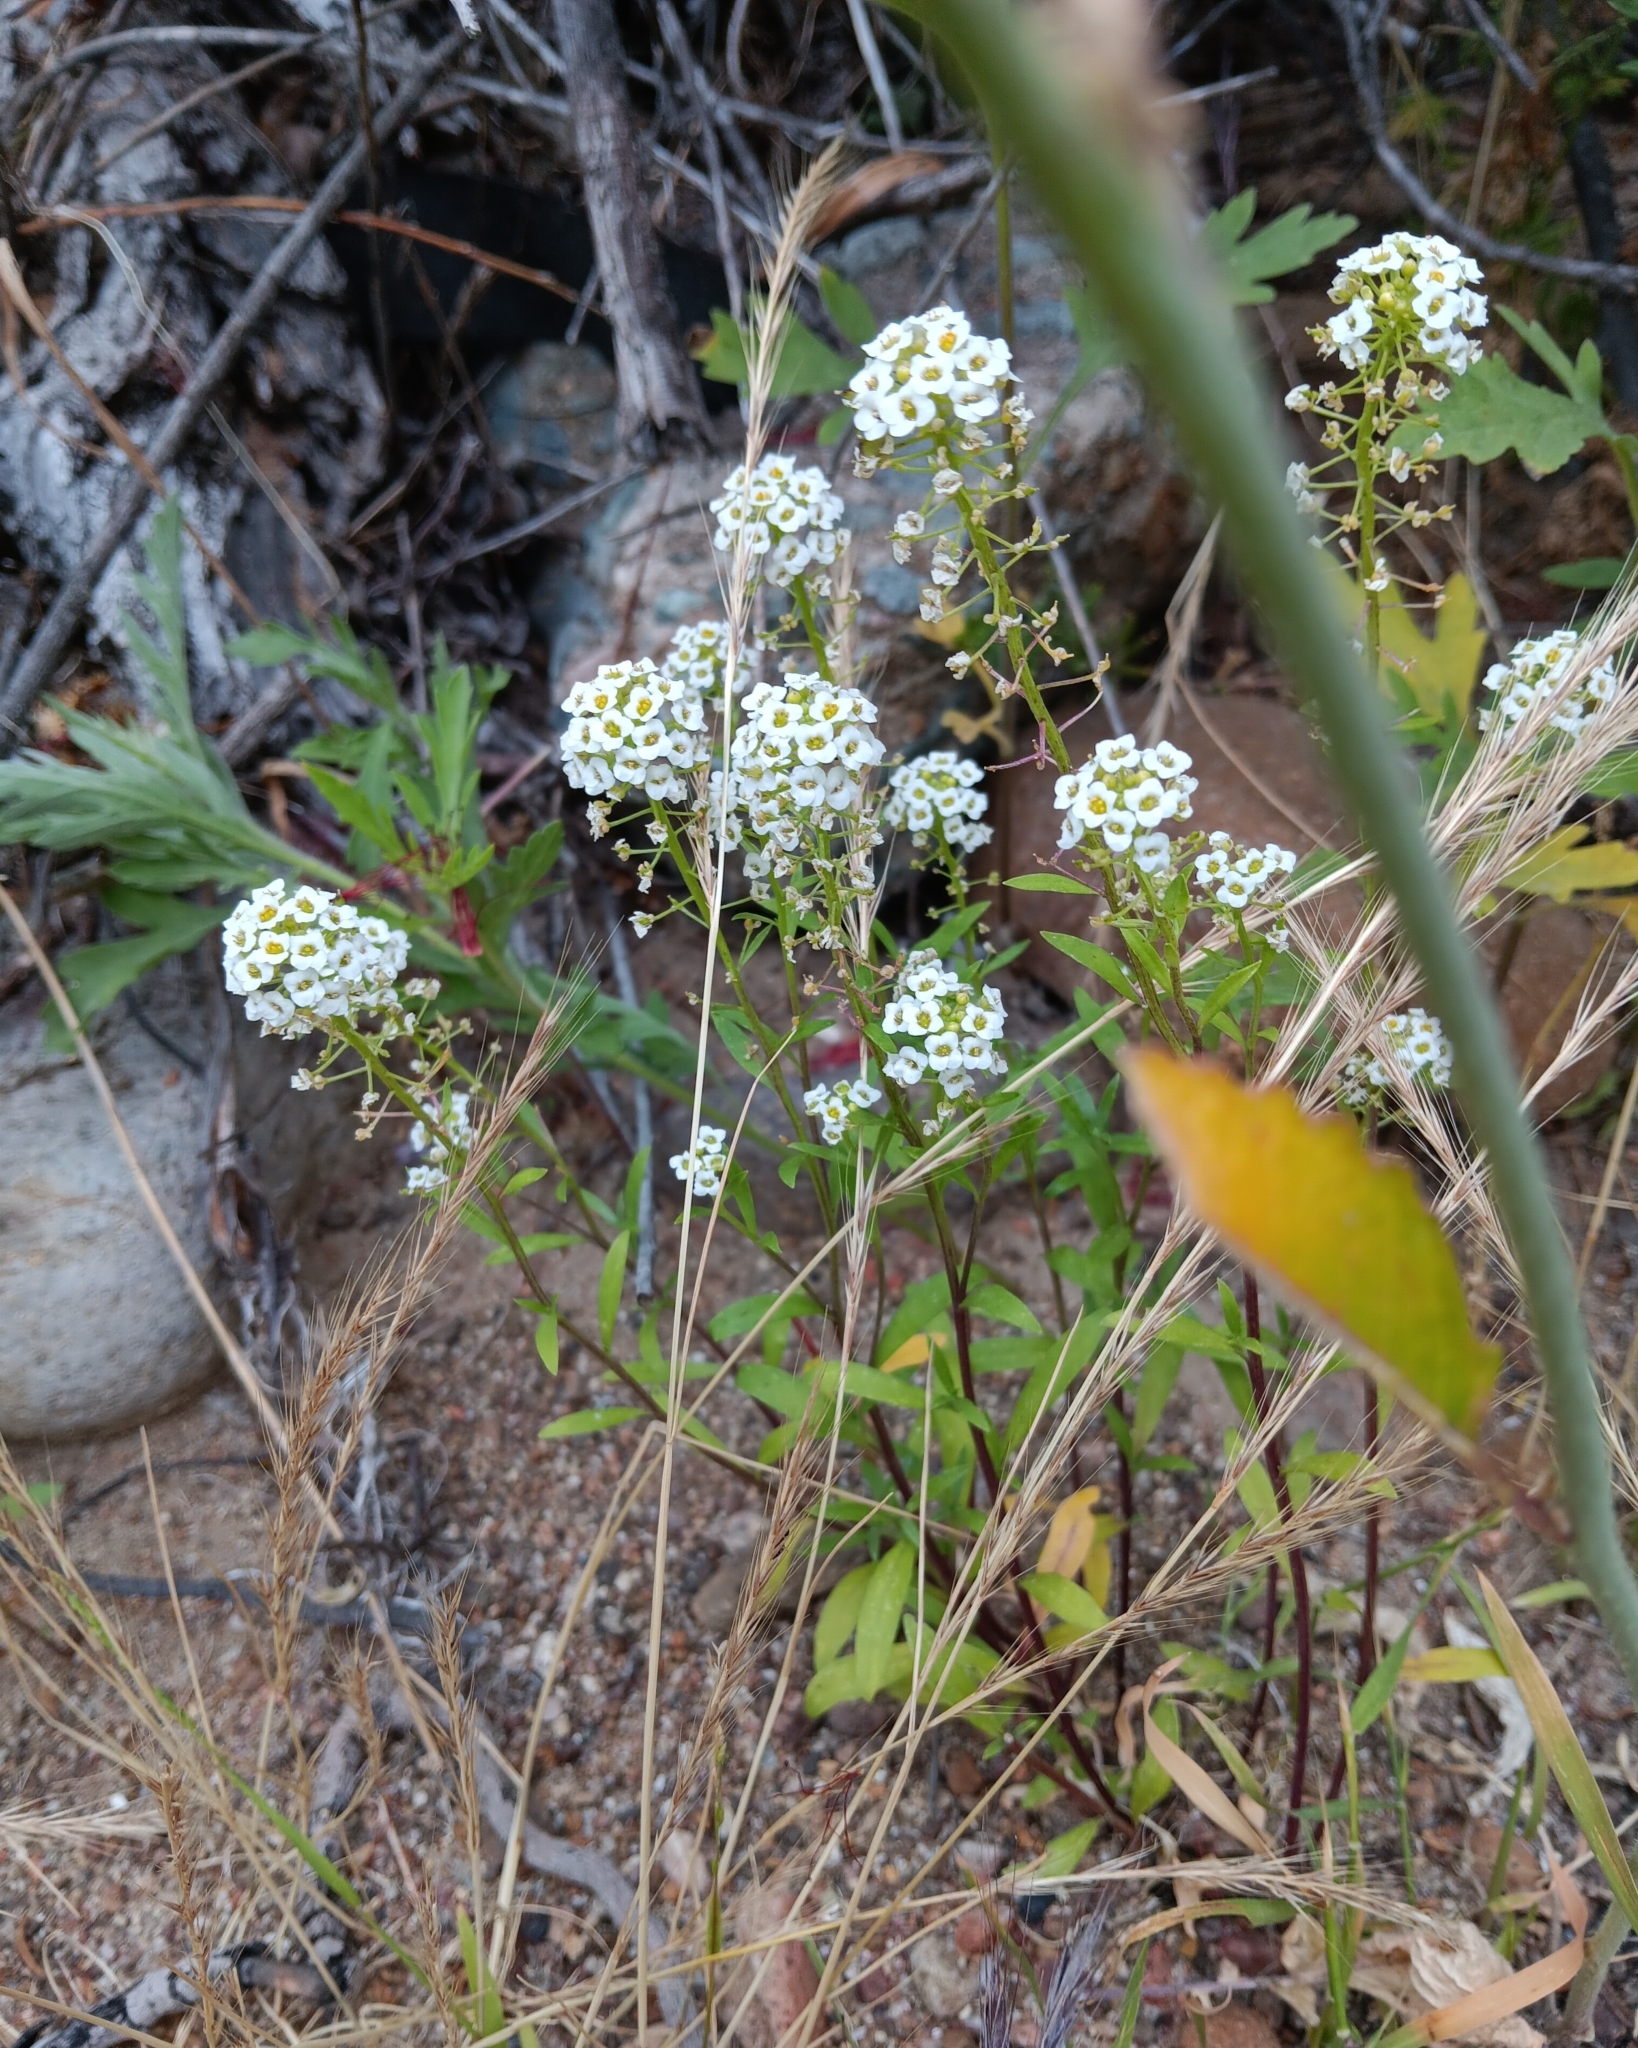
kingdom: Plantae
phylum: Tracheophyta
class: Magnoliopsida
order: Brassicales
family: Brassicaceae
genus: Lobularia
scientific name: Lobularia maritima
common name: Sweet alison
